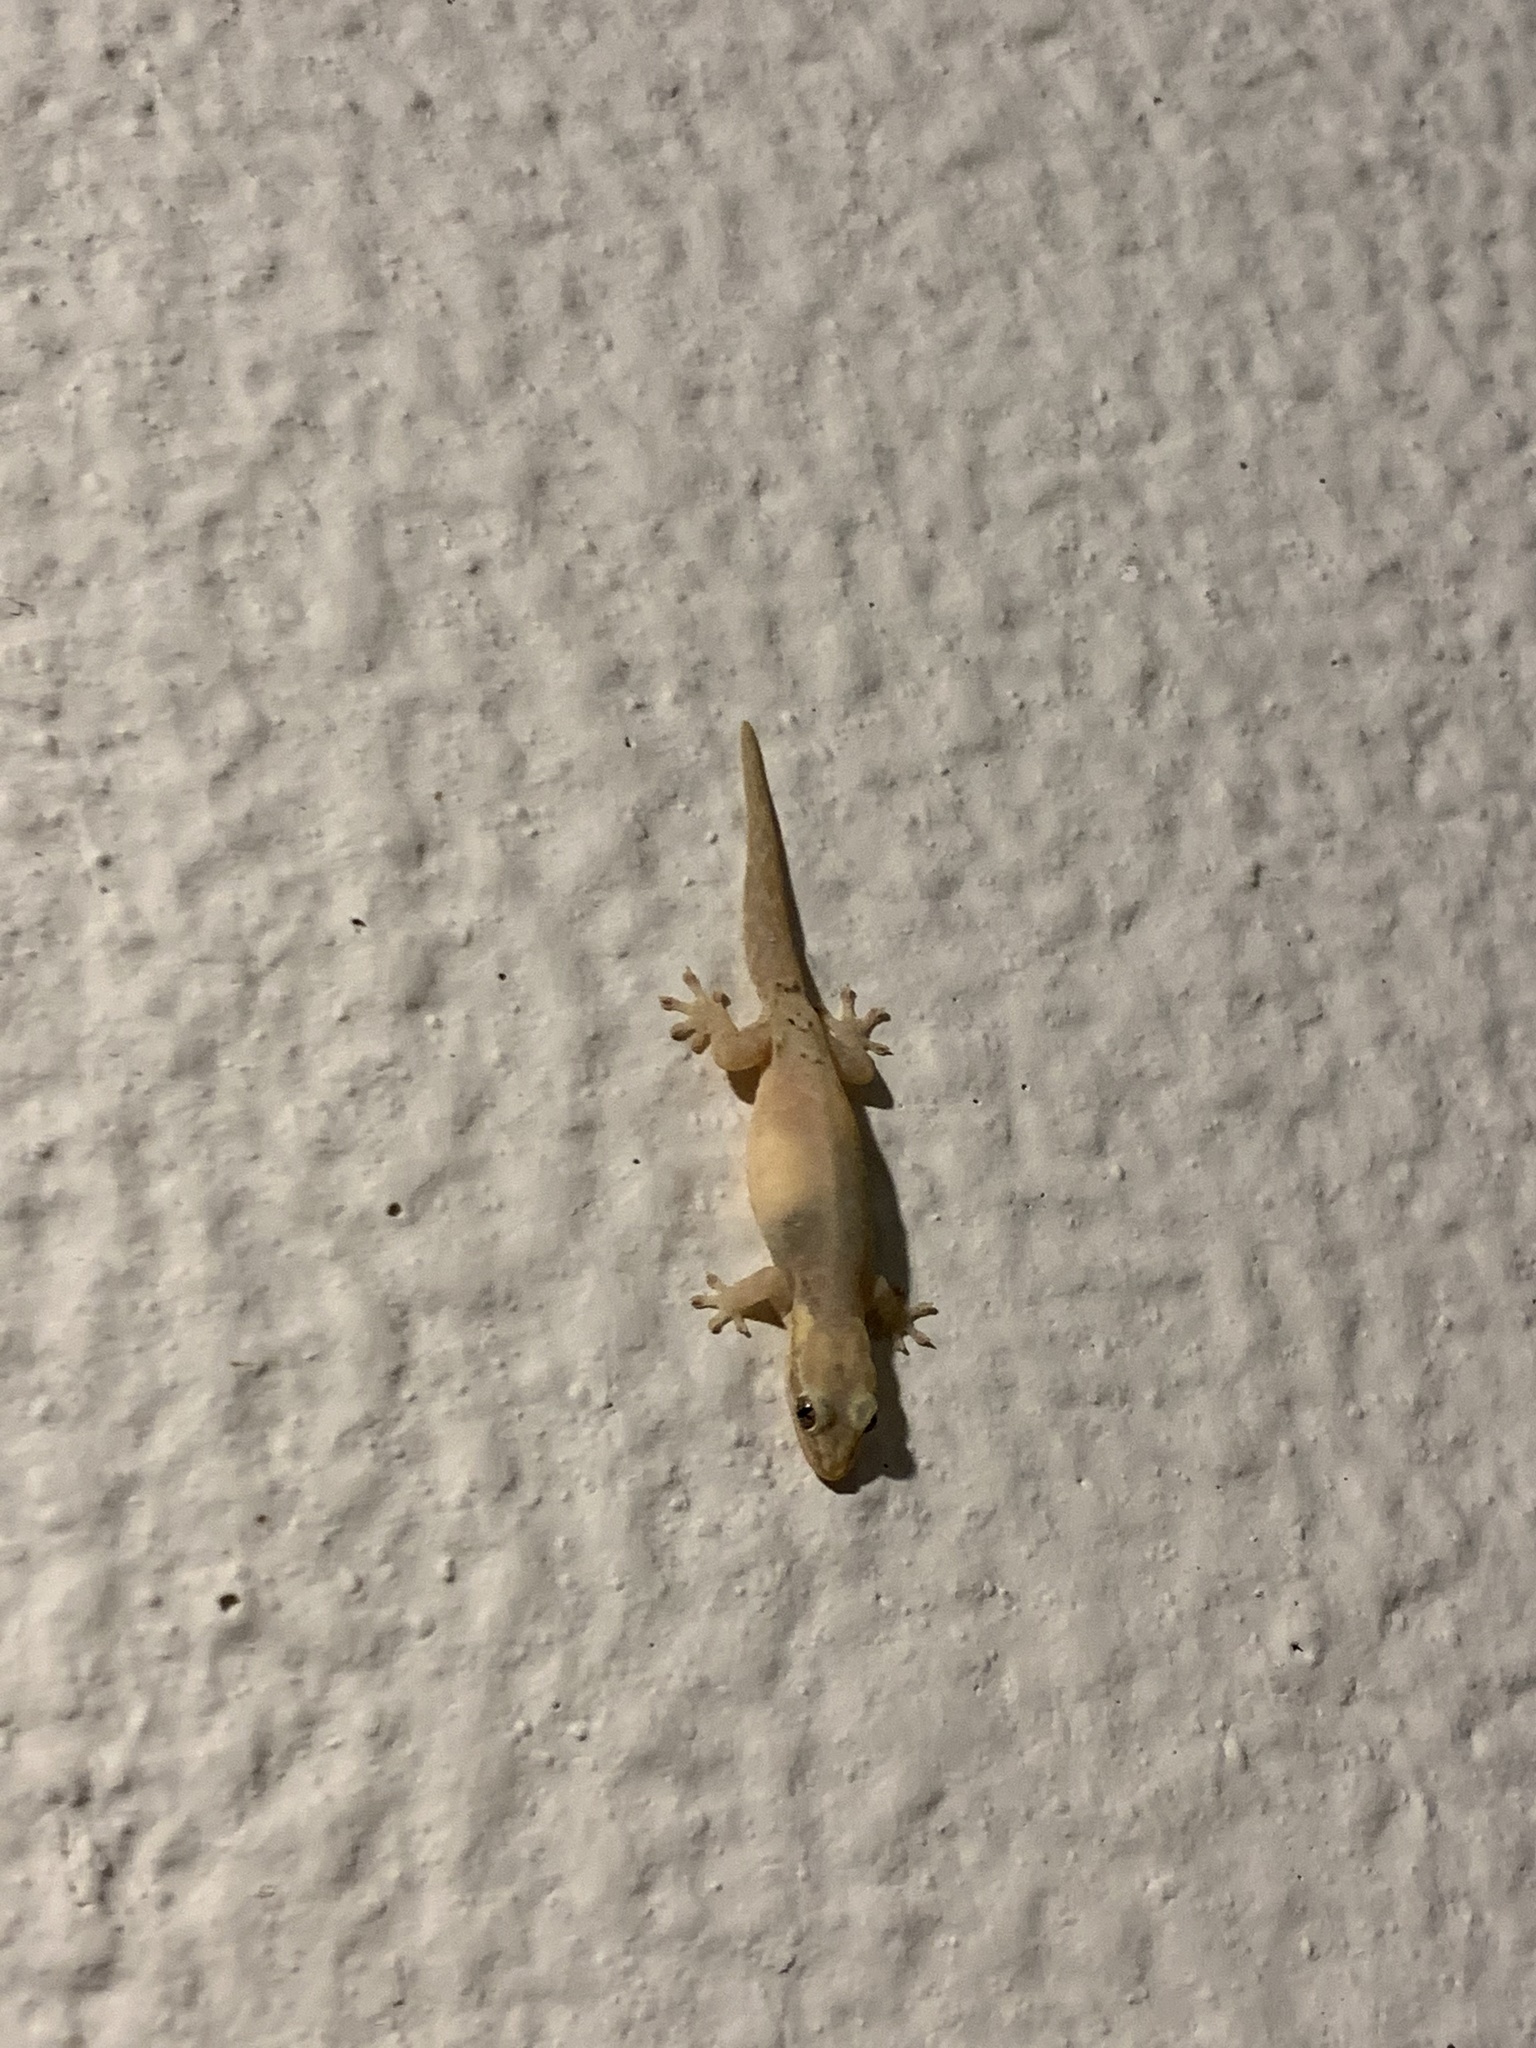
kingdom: Animalia
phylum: Chordata
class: Squamata
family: Gekkonidae
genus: Lepidodactylus
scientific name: Lepidodactylus lugubris
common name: Mourning gecko
